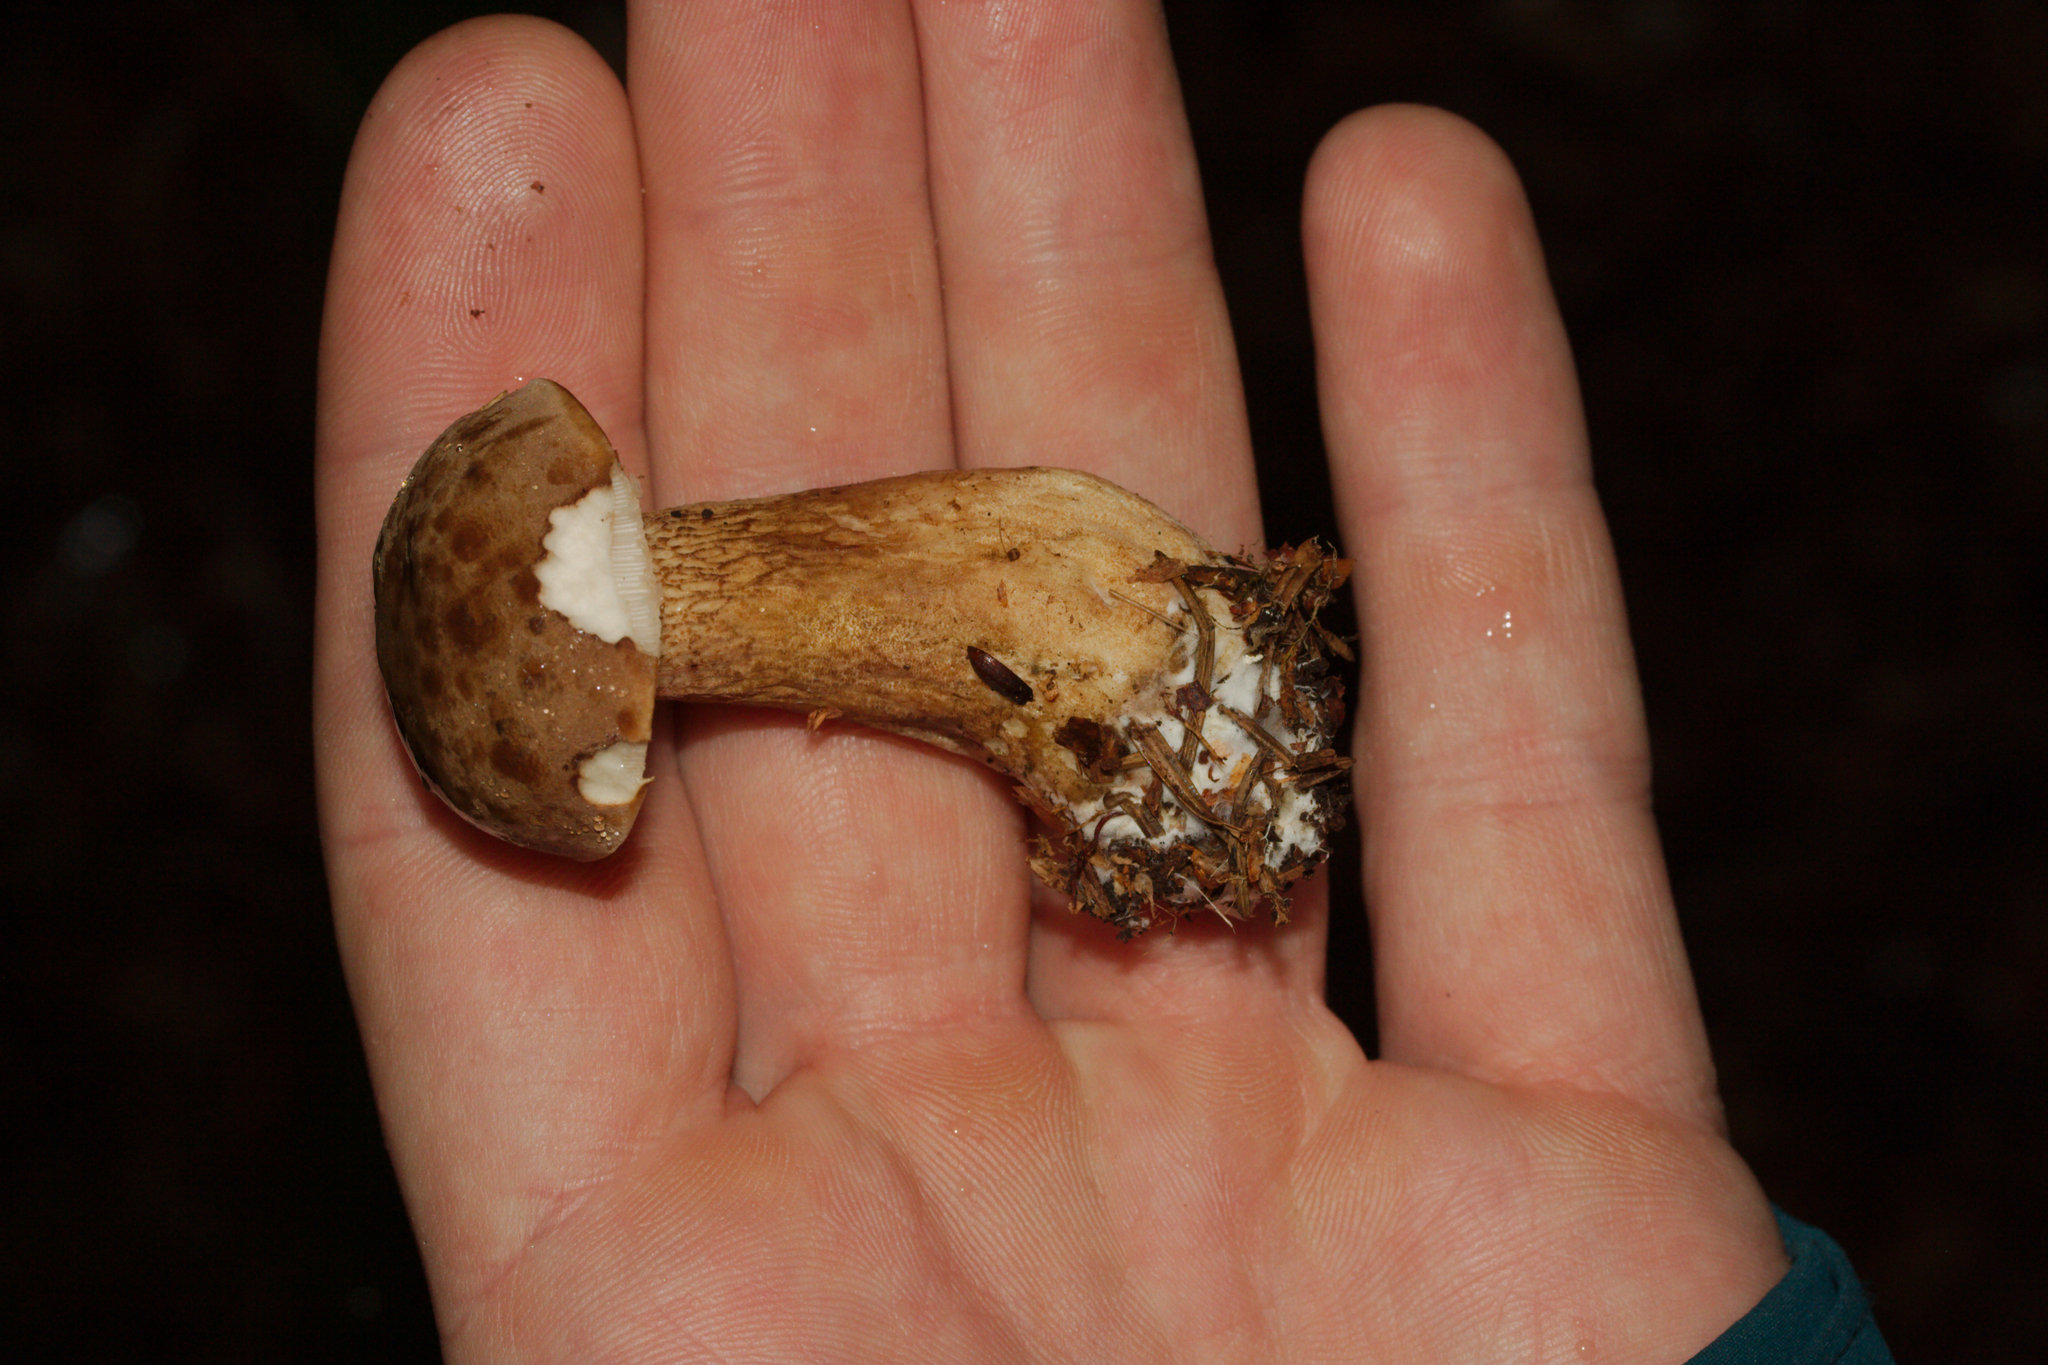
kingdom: Fungi
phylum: Basidiomycota
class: Agaricomycetes
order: Boletales
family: Boletaceae
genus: Tylopilus
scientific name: Tylopilus felleus
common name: Bitter bolete
